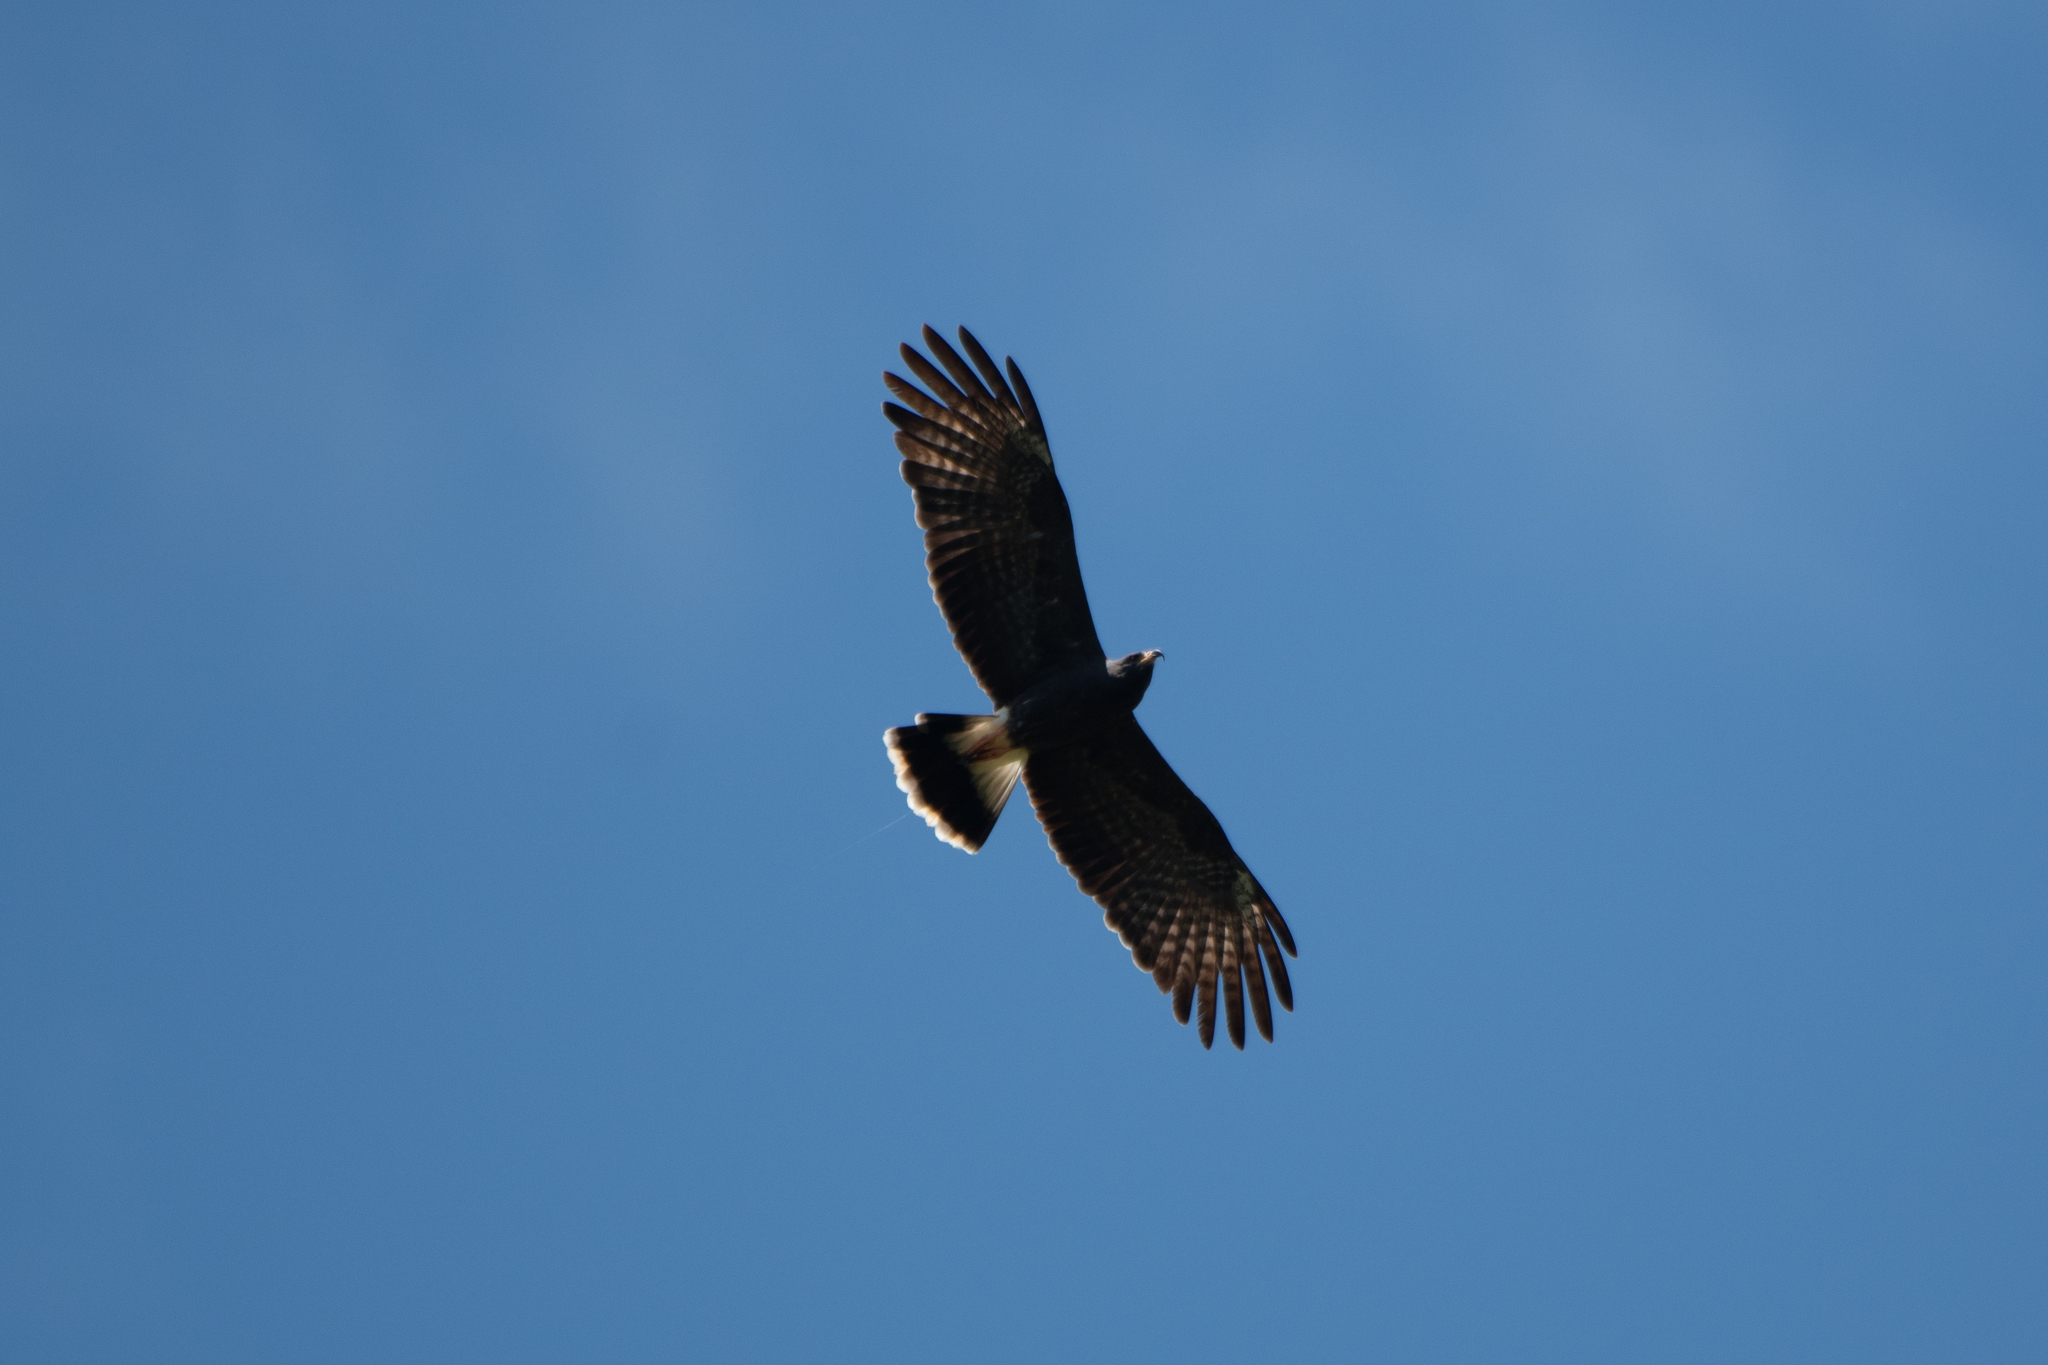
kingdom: Animalia
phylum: Chordata
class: Aves
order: Accipitriformes
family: Accipitridae
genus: Rostrhamus
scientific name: Rostrhamus sociabilis
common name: Snail kite
